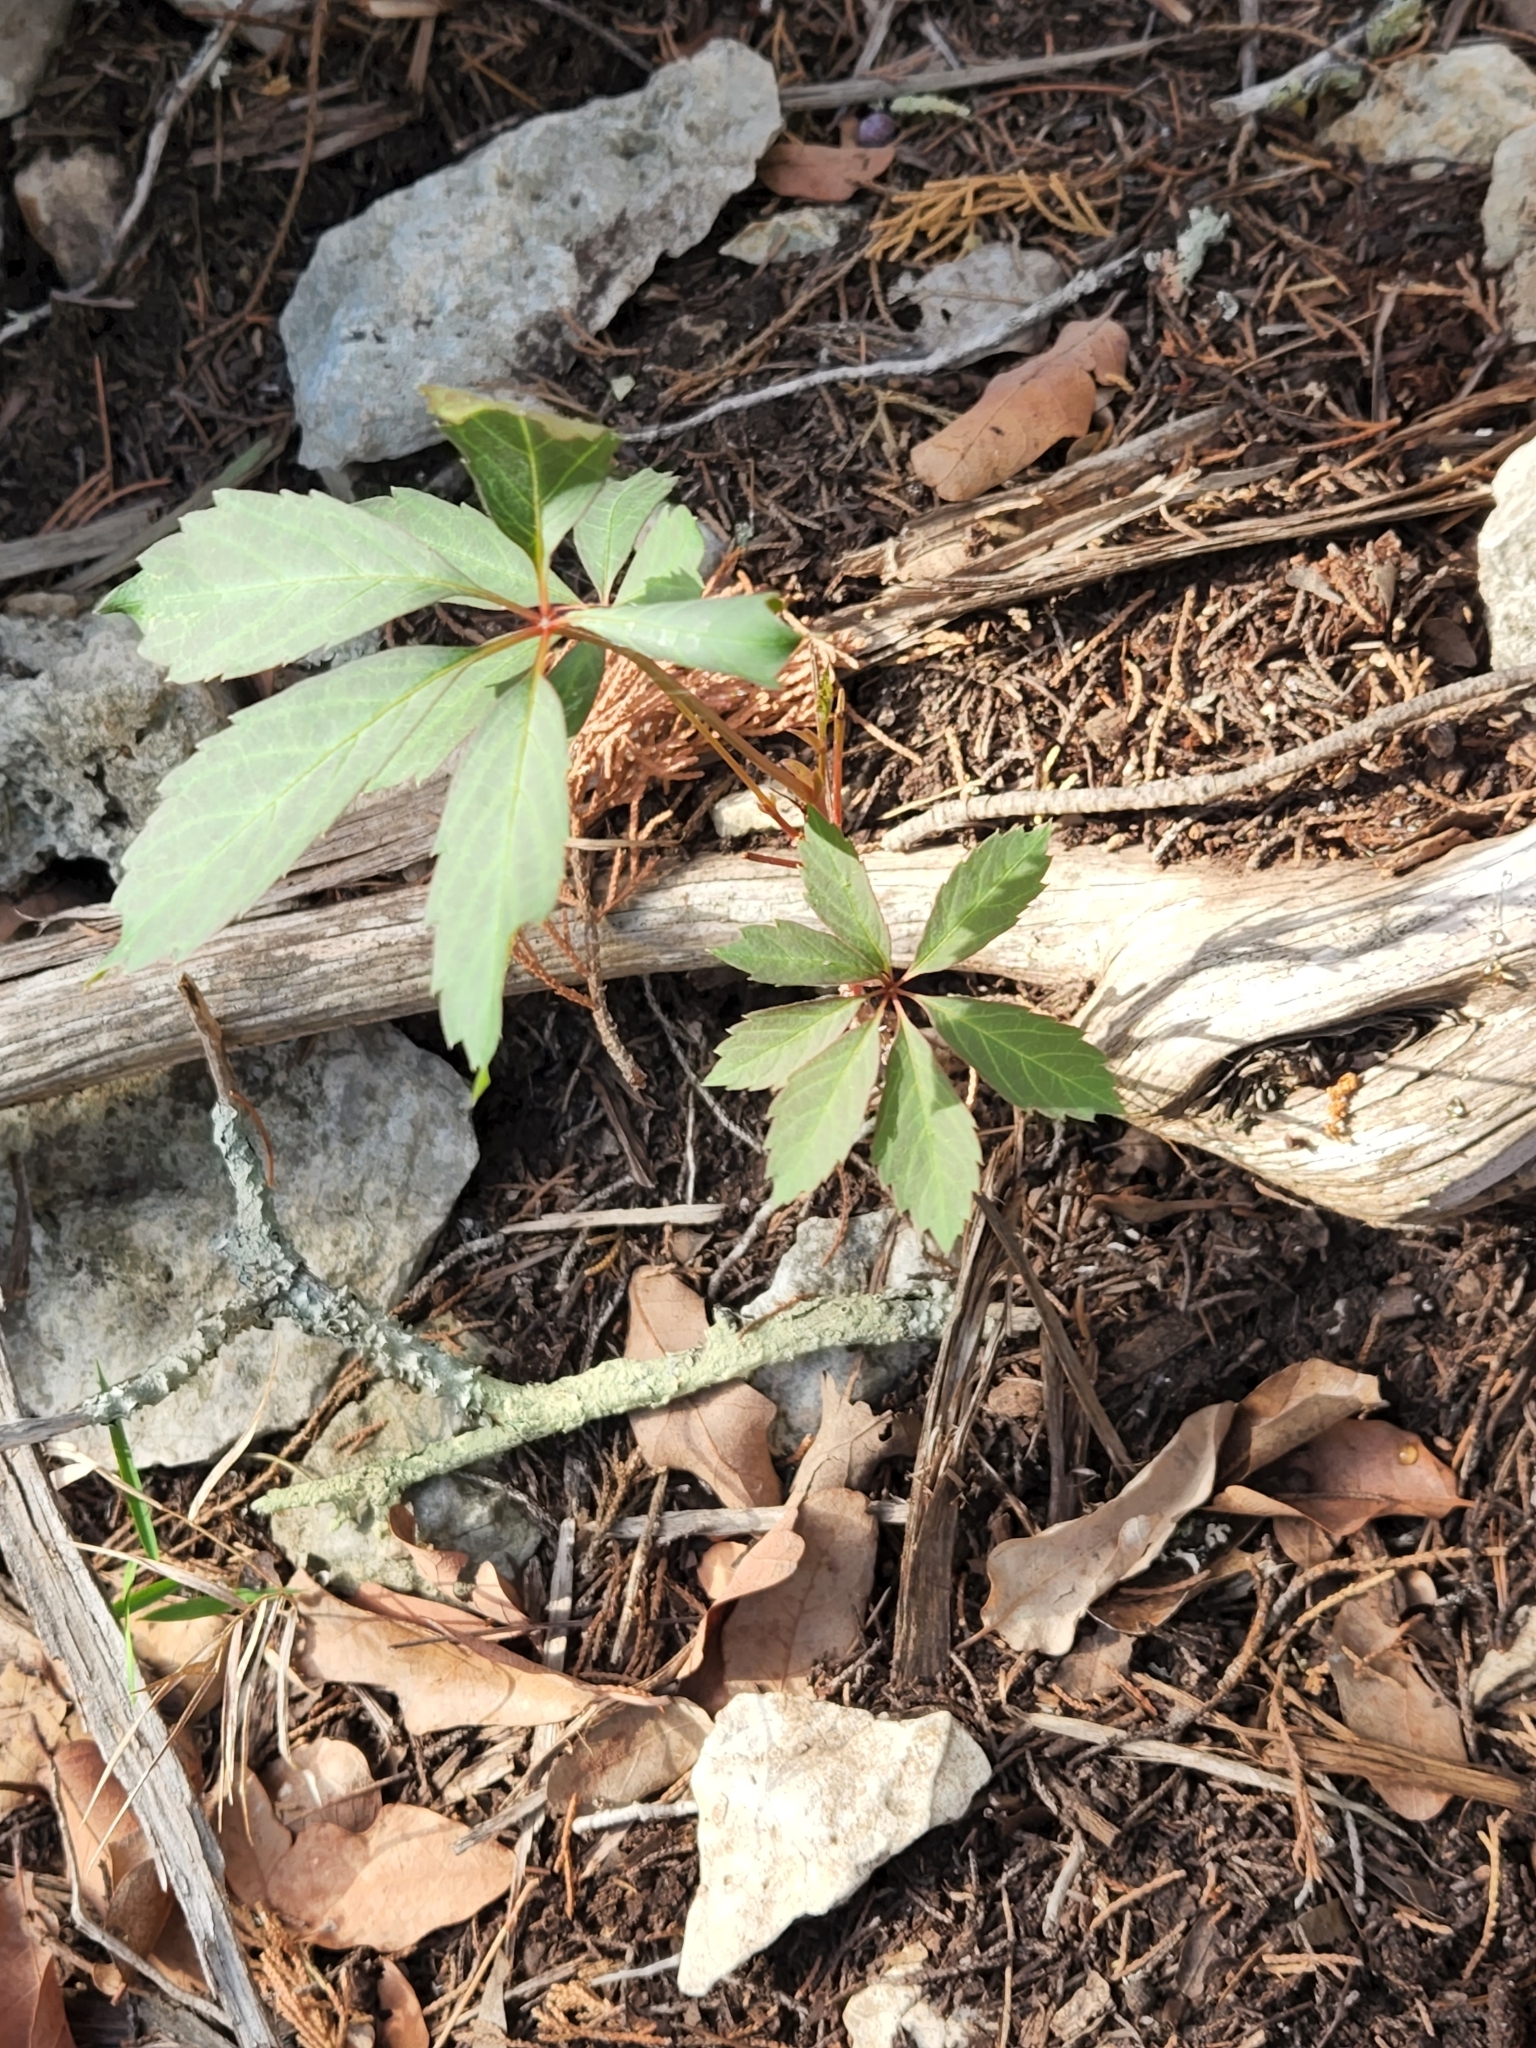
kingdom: Plantae
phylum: Tracheophyta
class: Magnoliopsida
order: Vitales
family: Vitaceae
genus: Parthenocissus
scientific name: Parthenocissus heptaphylla
